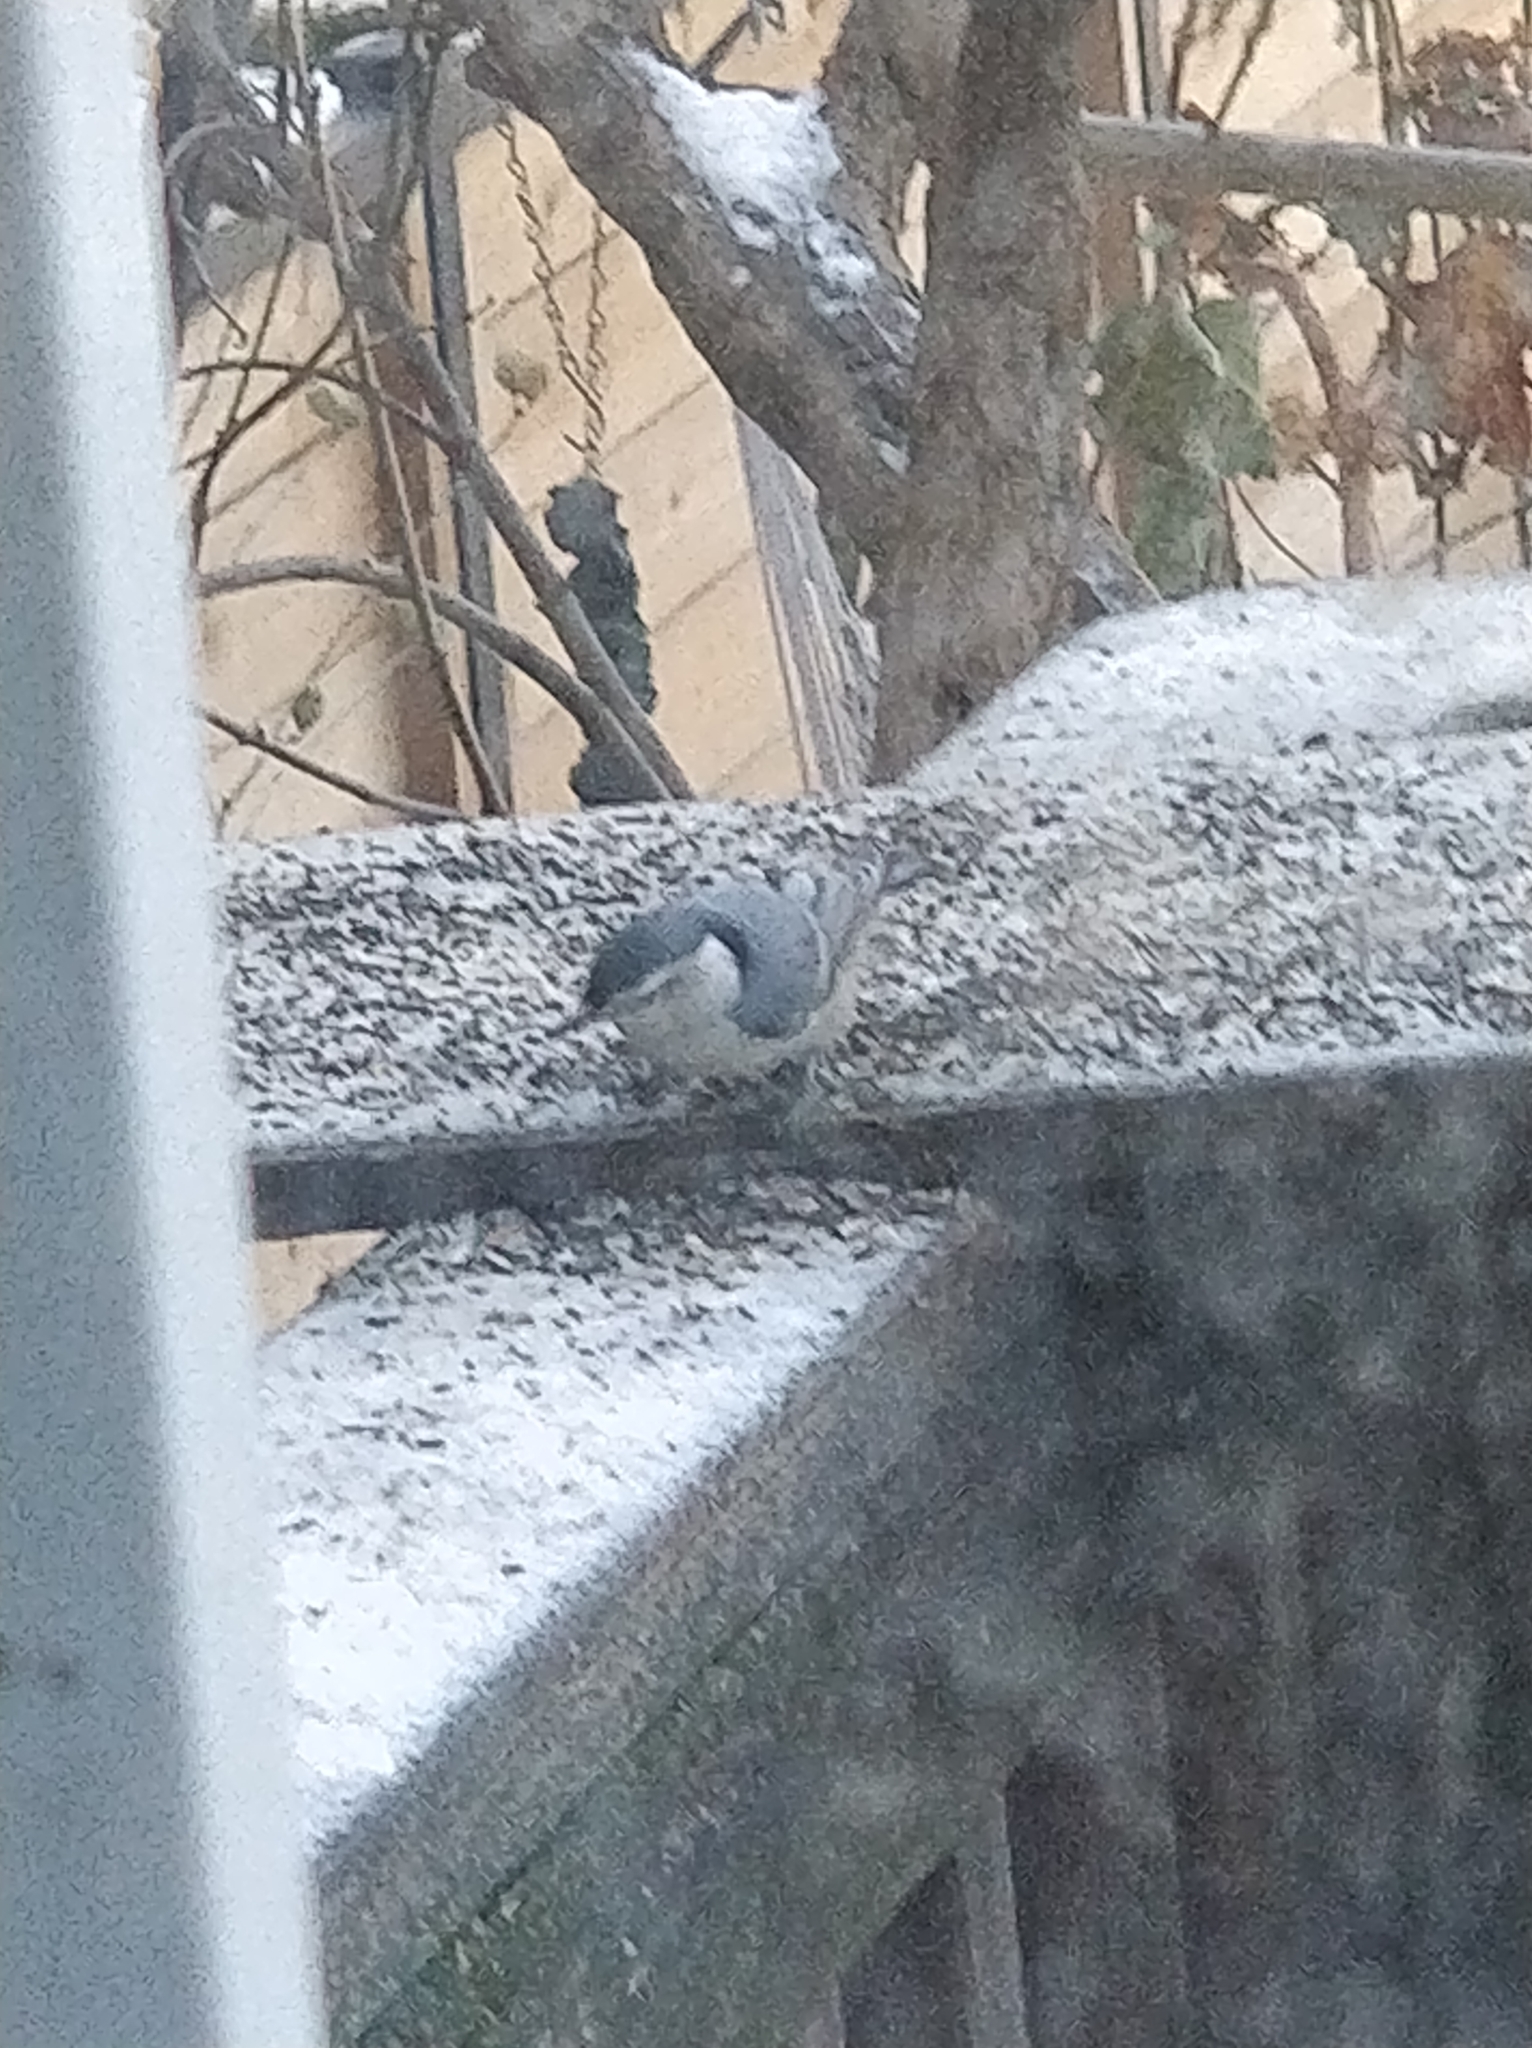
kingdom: Animalia
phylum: Chordata
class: Aves
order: Passeriformes
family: Sittidae
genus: Sitta
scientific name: Sitta carolinensis
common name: White-breasted nuthatch
